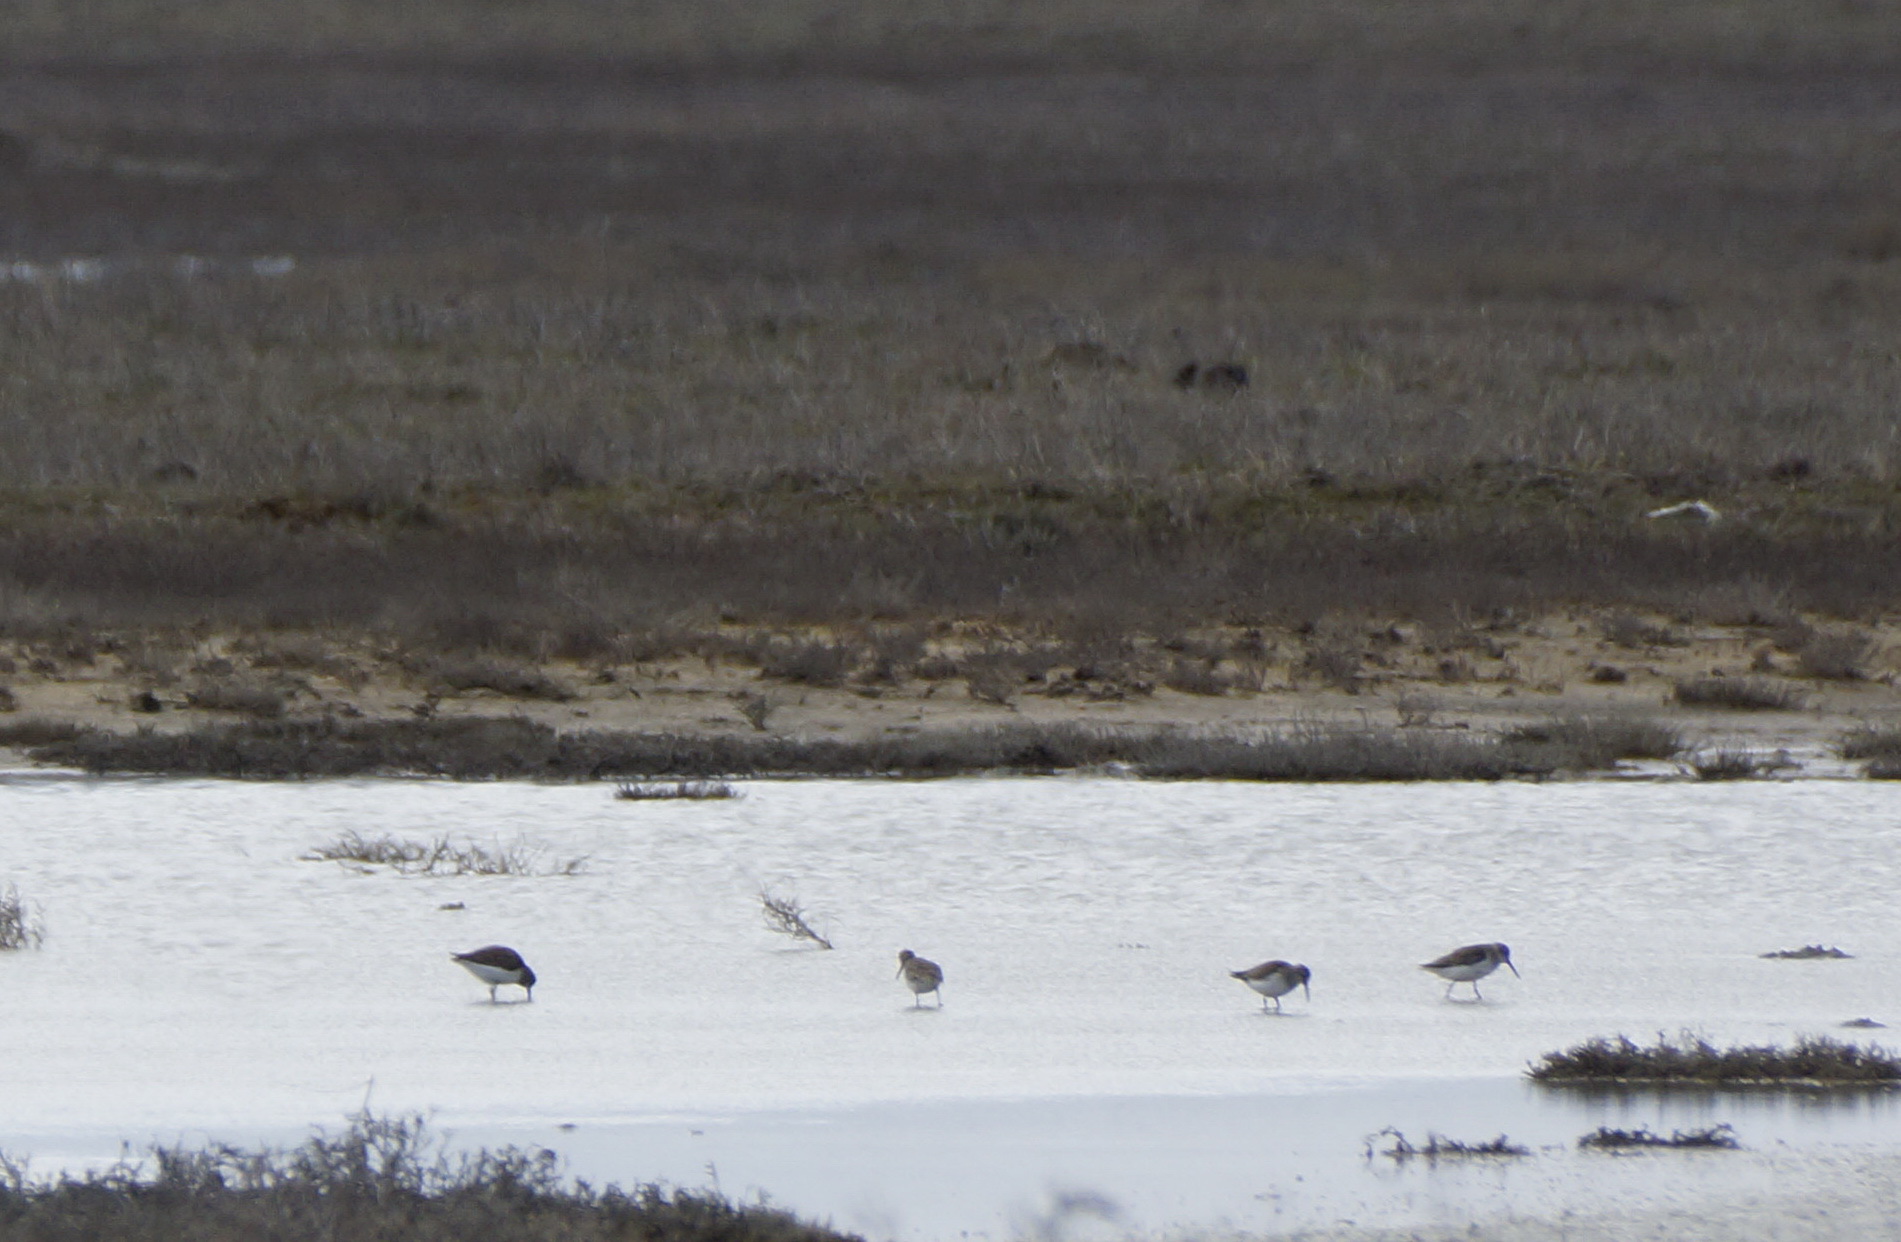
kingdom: Animalia
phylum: Chordata
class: Aves
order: Charadriiformes
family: Scolopacidae
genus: Calidris
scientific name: Calidris alpina
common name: Dunlin
